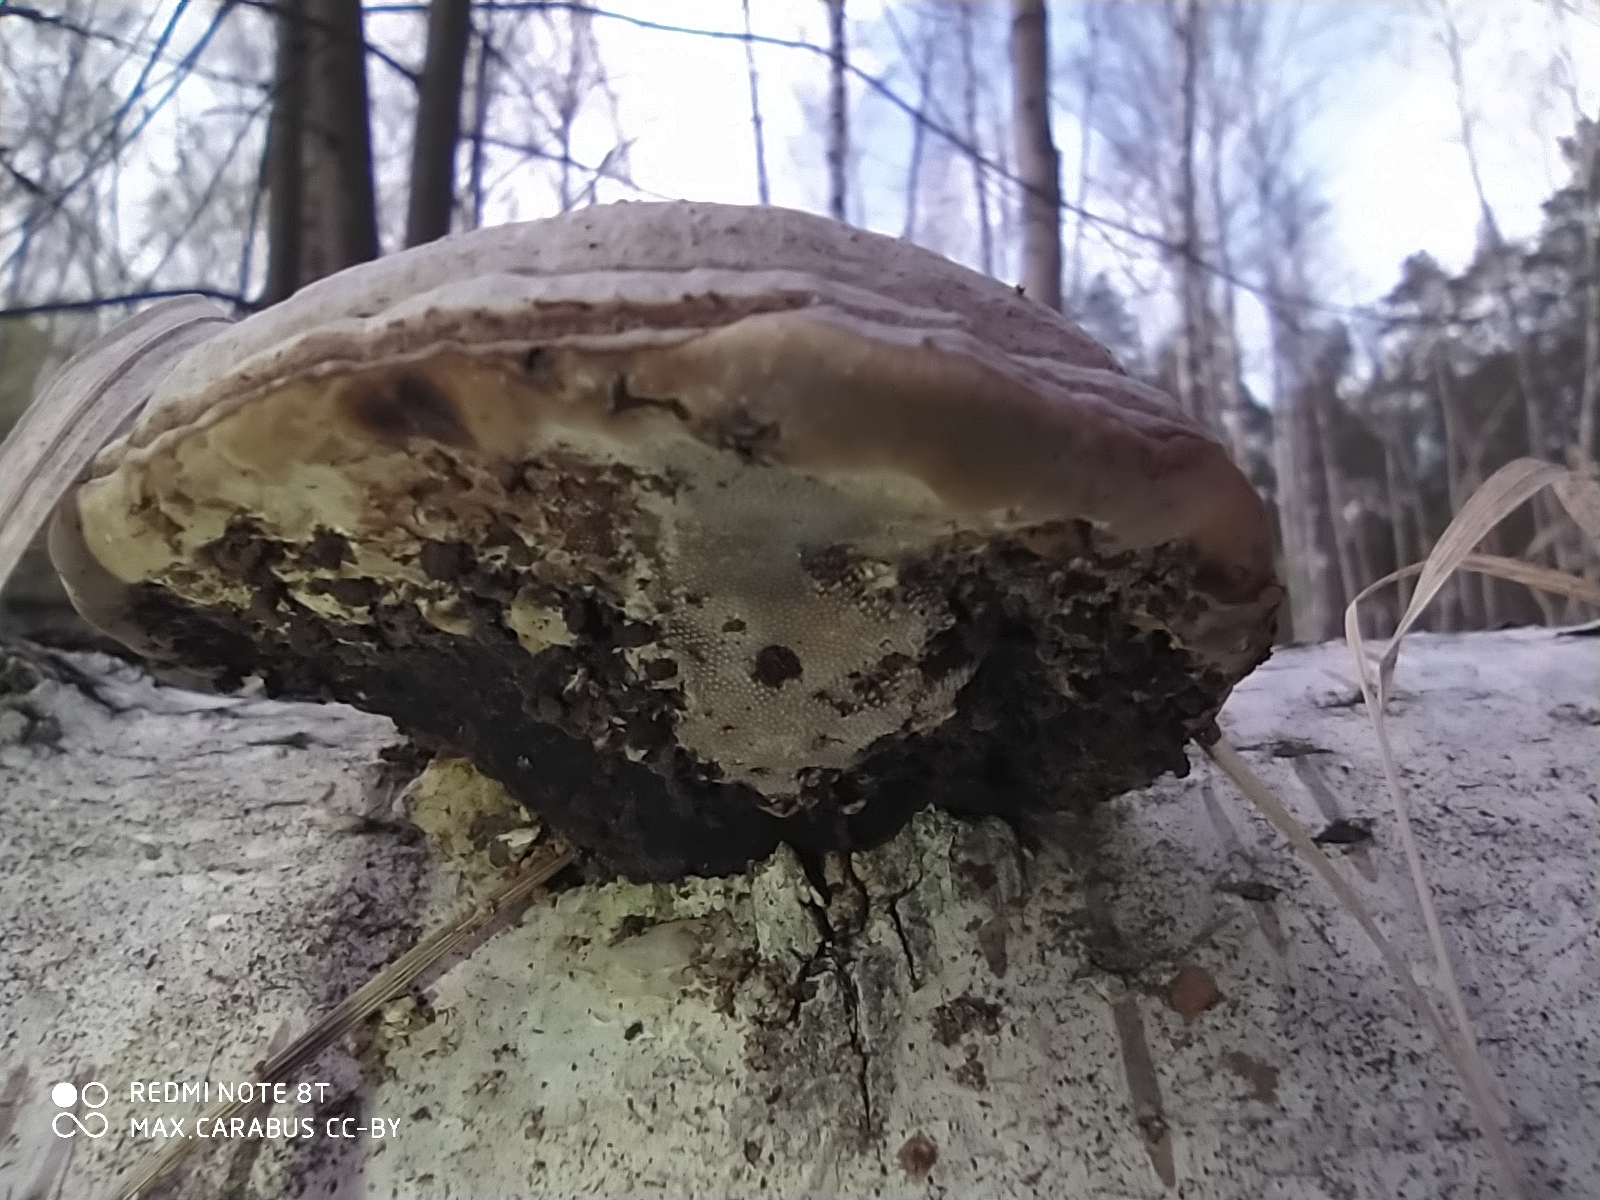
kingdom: Fungi
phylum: Basidiomycota
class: Agaricomycetes
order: Polyporales
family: Polyporaceae
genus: Fomes
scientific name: Fomes fomentarius
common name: Hoof fungus
